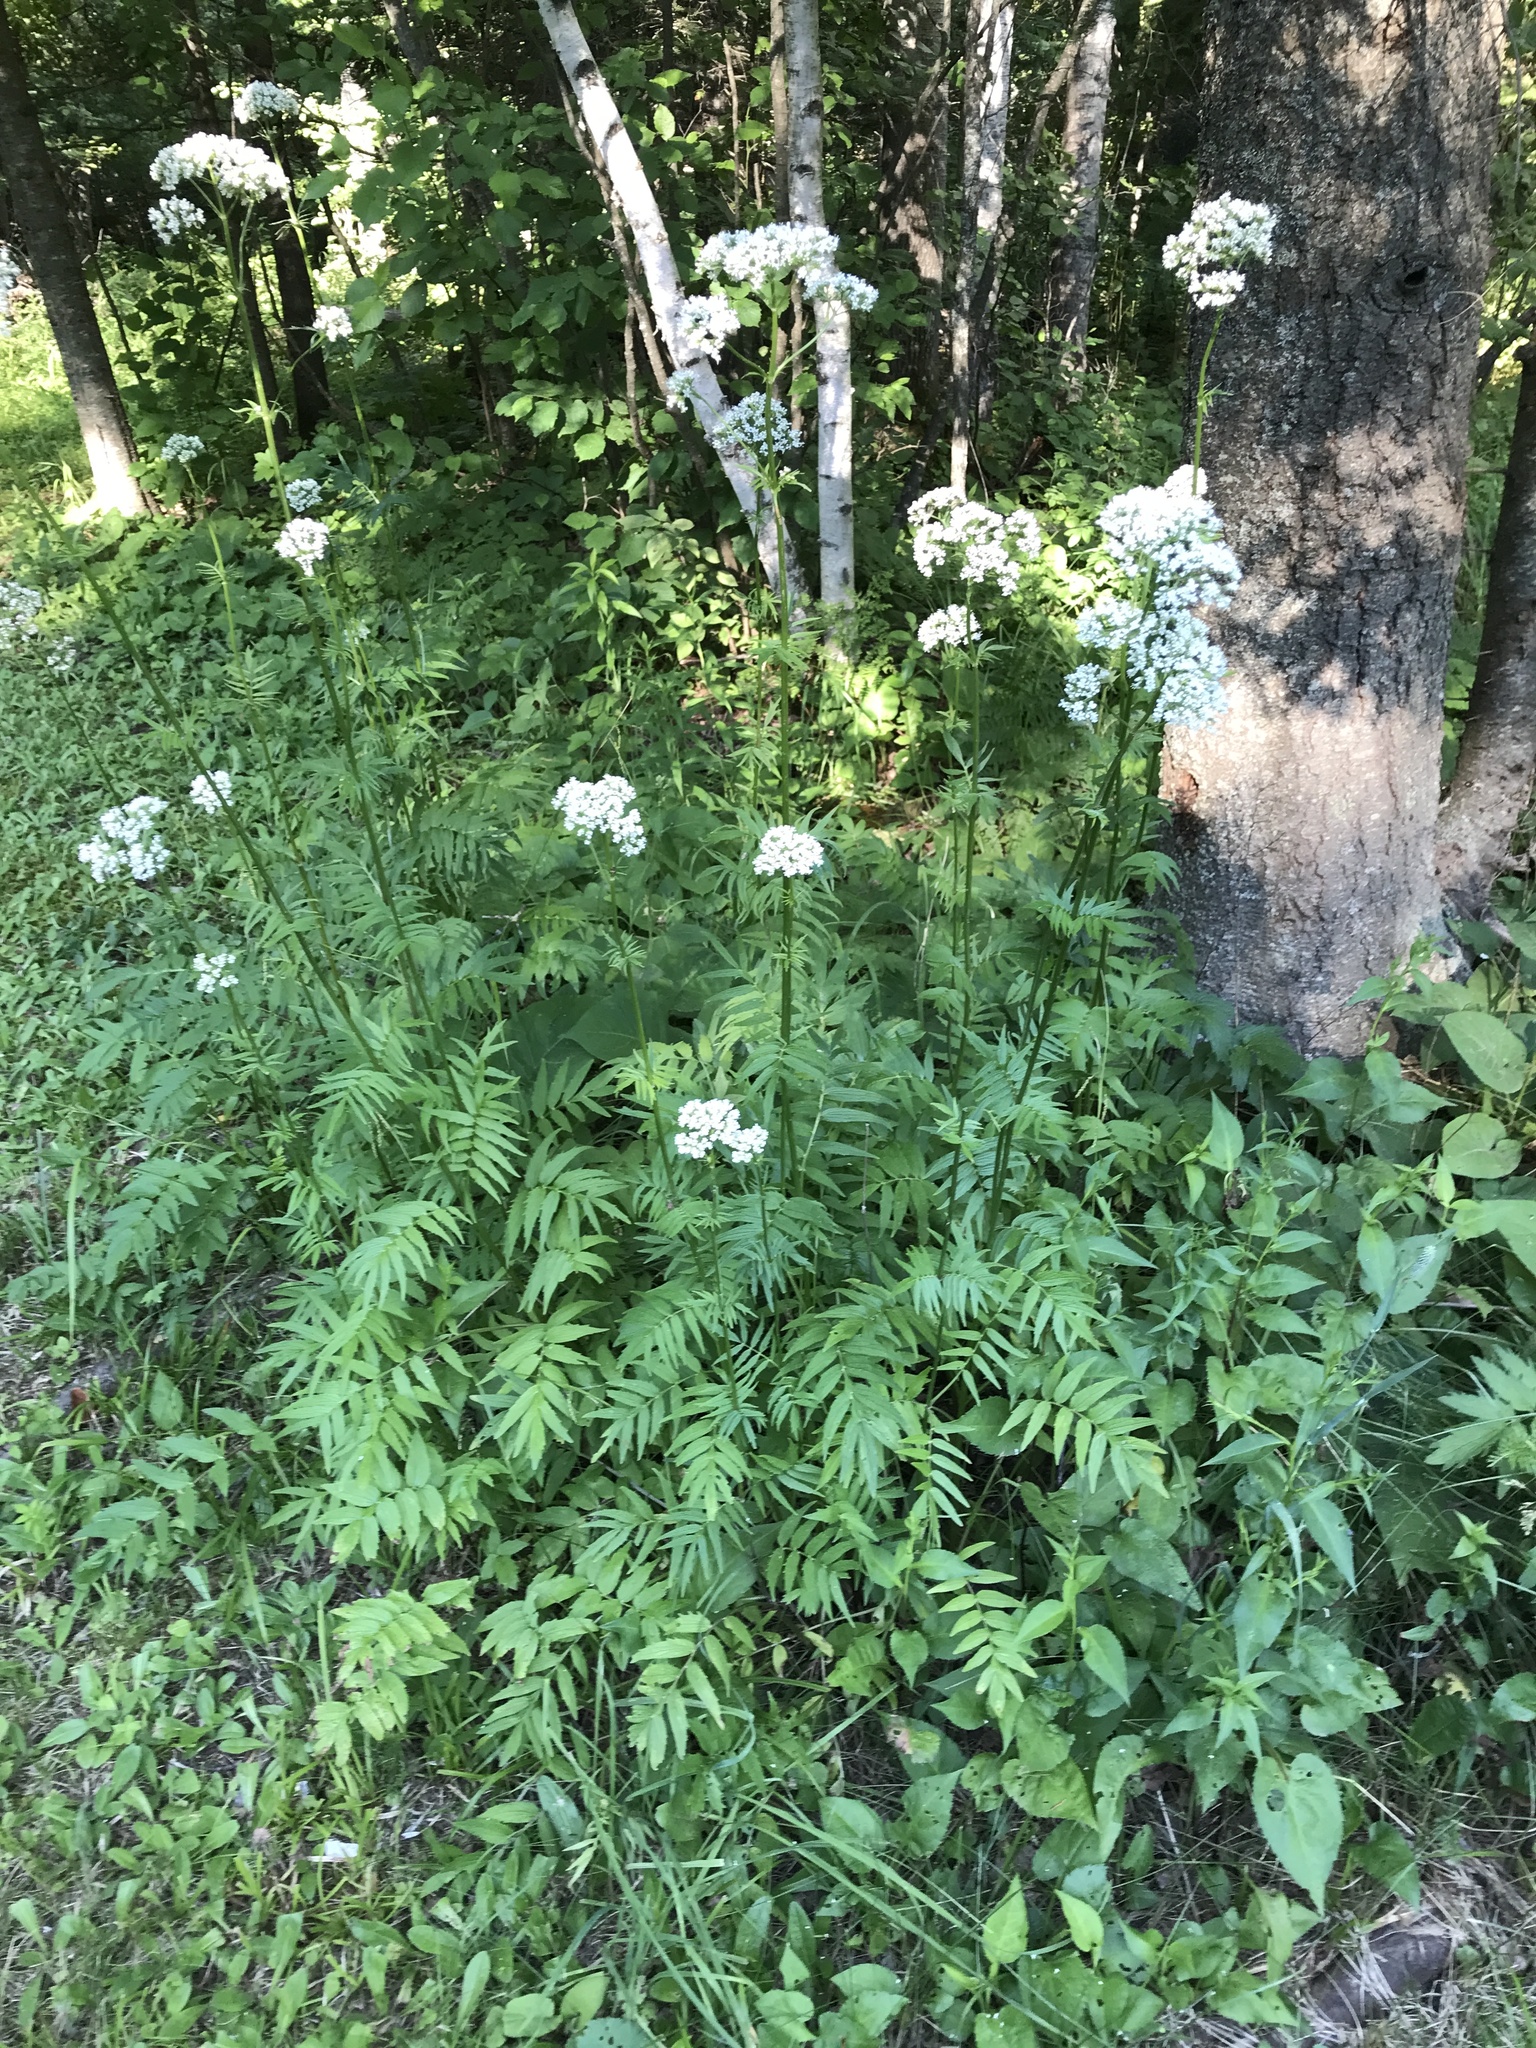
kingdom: Plantae
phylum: Tracheophyta
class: Magnoliopsida
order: Dipsacales
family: Caprifoliaceae
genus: Valeriana
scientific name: Valeriana officinalis
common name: Common valerian
